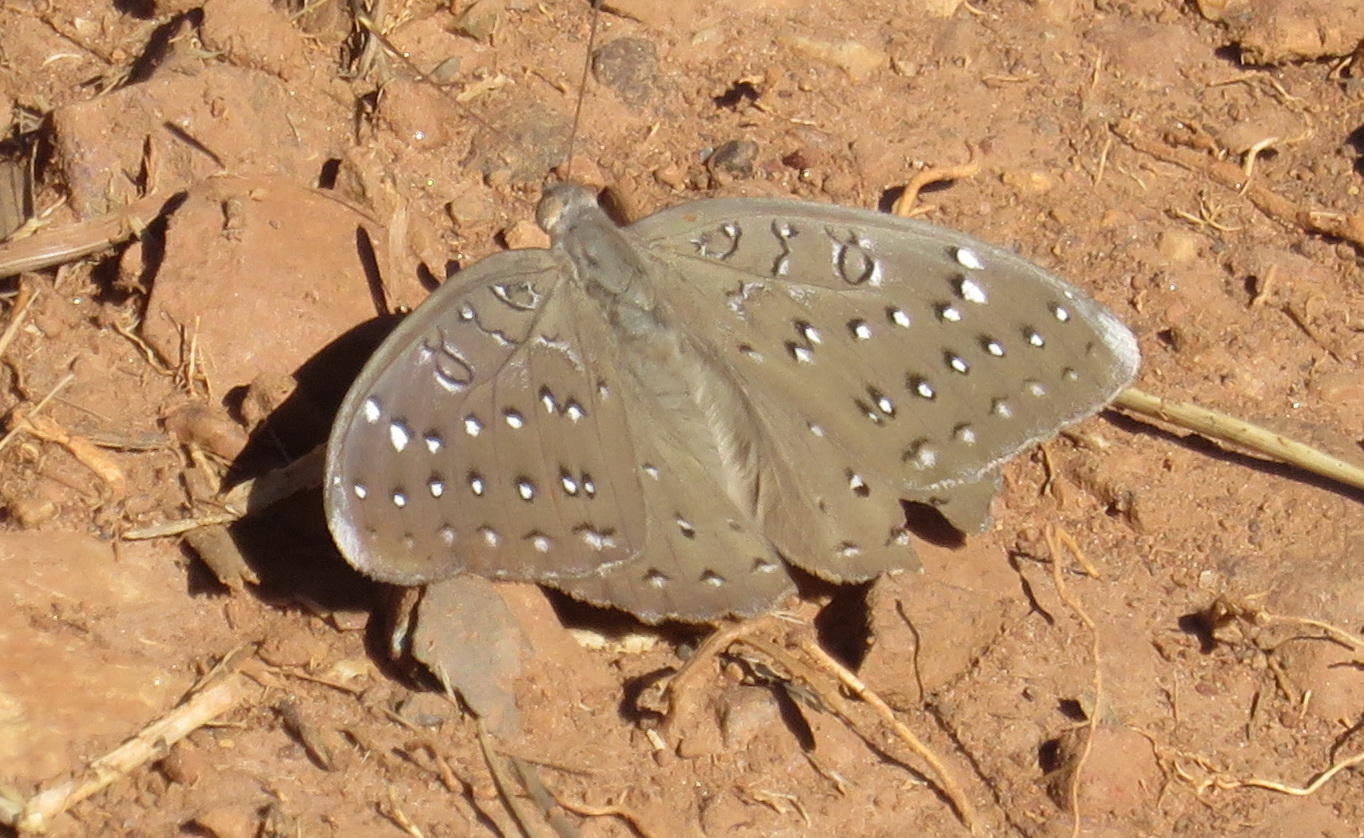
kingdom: Animalia
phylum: Arthropoda
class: Insecta
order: Lepidoptera
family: Nymphalidae
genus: Hamanumida
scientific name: Hamanumida daedalus
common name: Guinea-fowl butterfly
